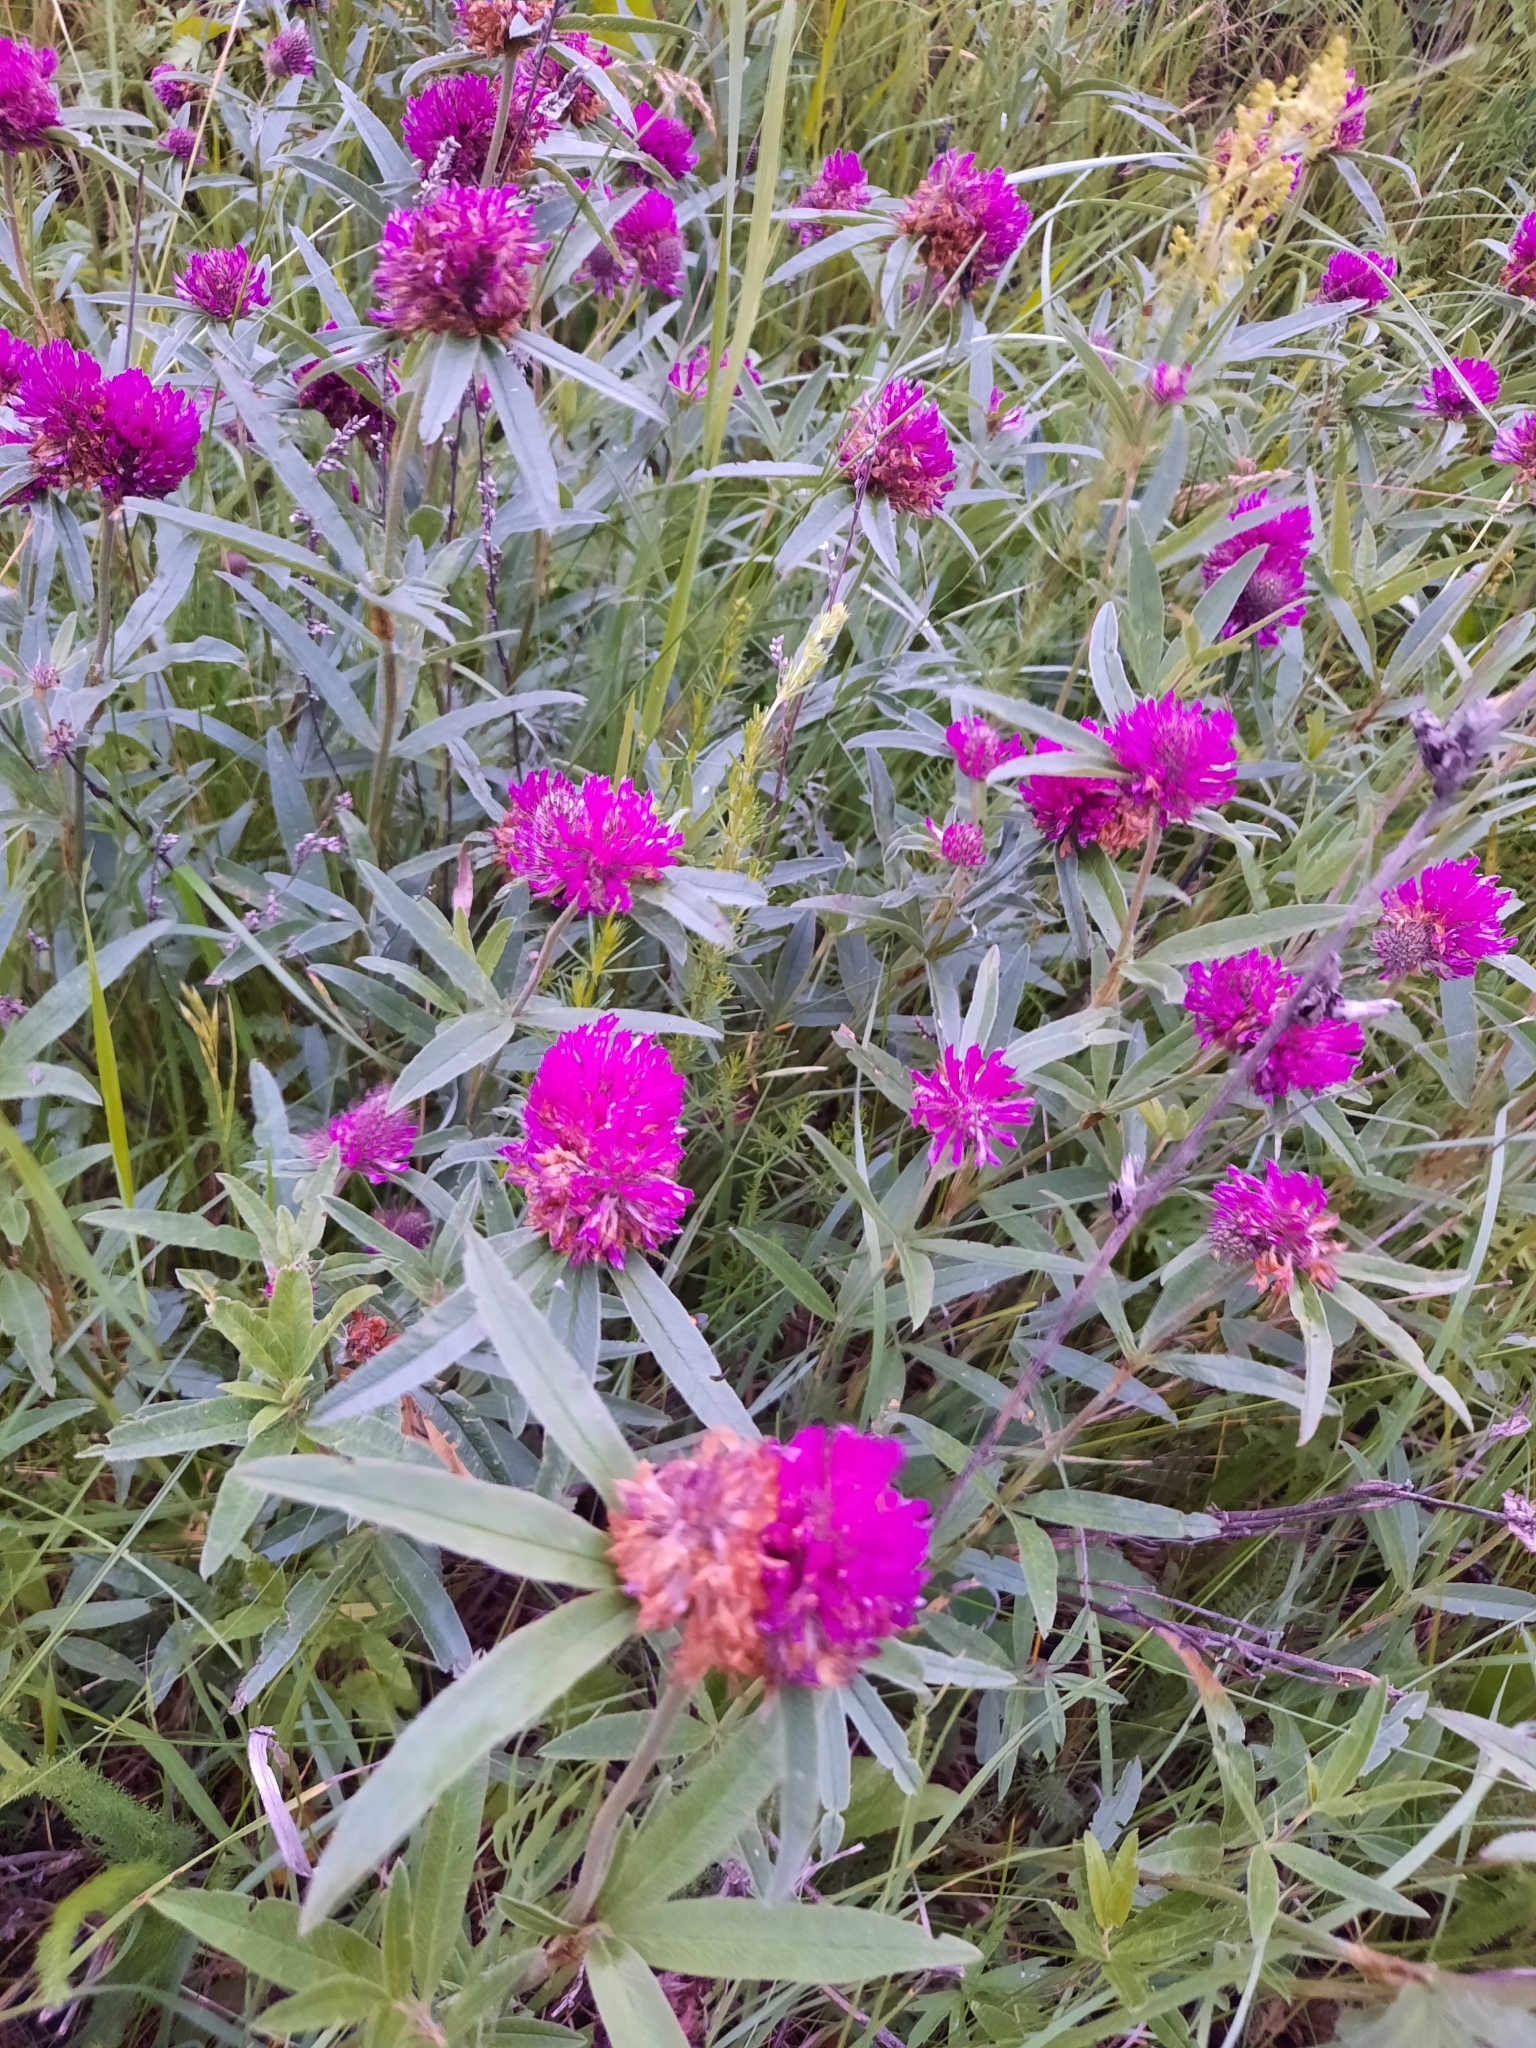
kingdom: Plantae
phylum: Tracheophyta
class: Magnoliopsida
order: Fabales
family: Fabaceae
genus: Trifolium
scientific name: Trifolium alpestre
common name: Owl-head clover
